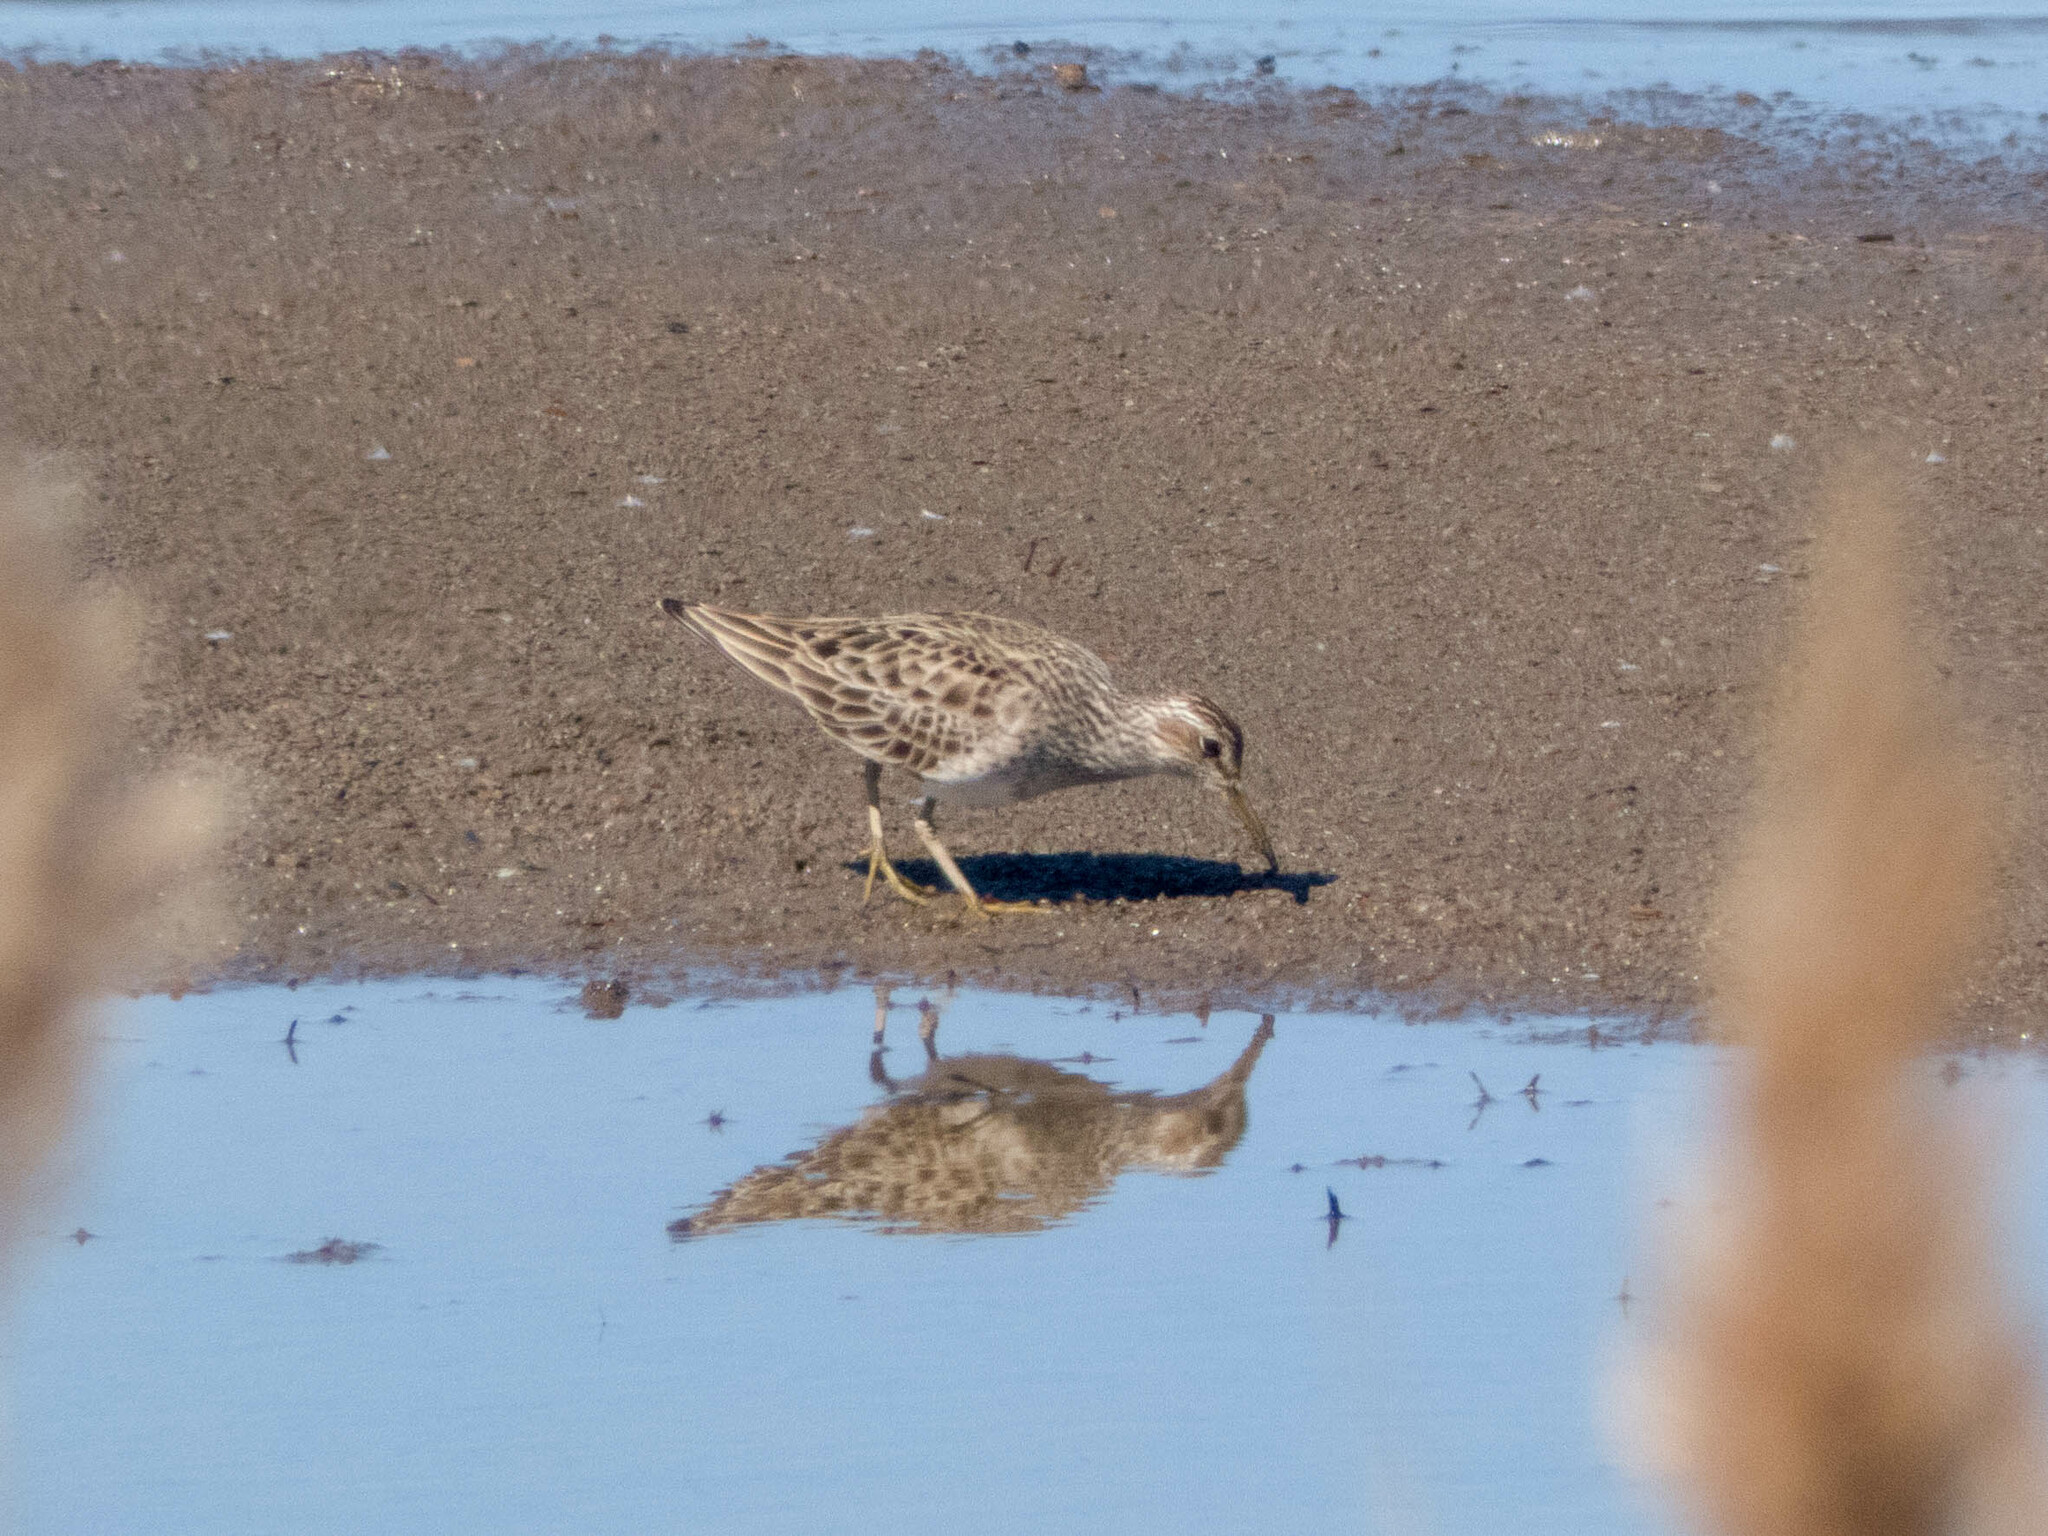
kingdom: Animalia
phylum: Chordata
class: Aves
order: Charadriiformes
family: Scolopacidae
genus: Calidris
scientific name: Calidris melanotos
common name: Pectoral sandpiper
